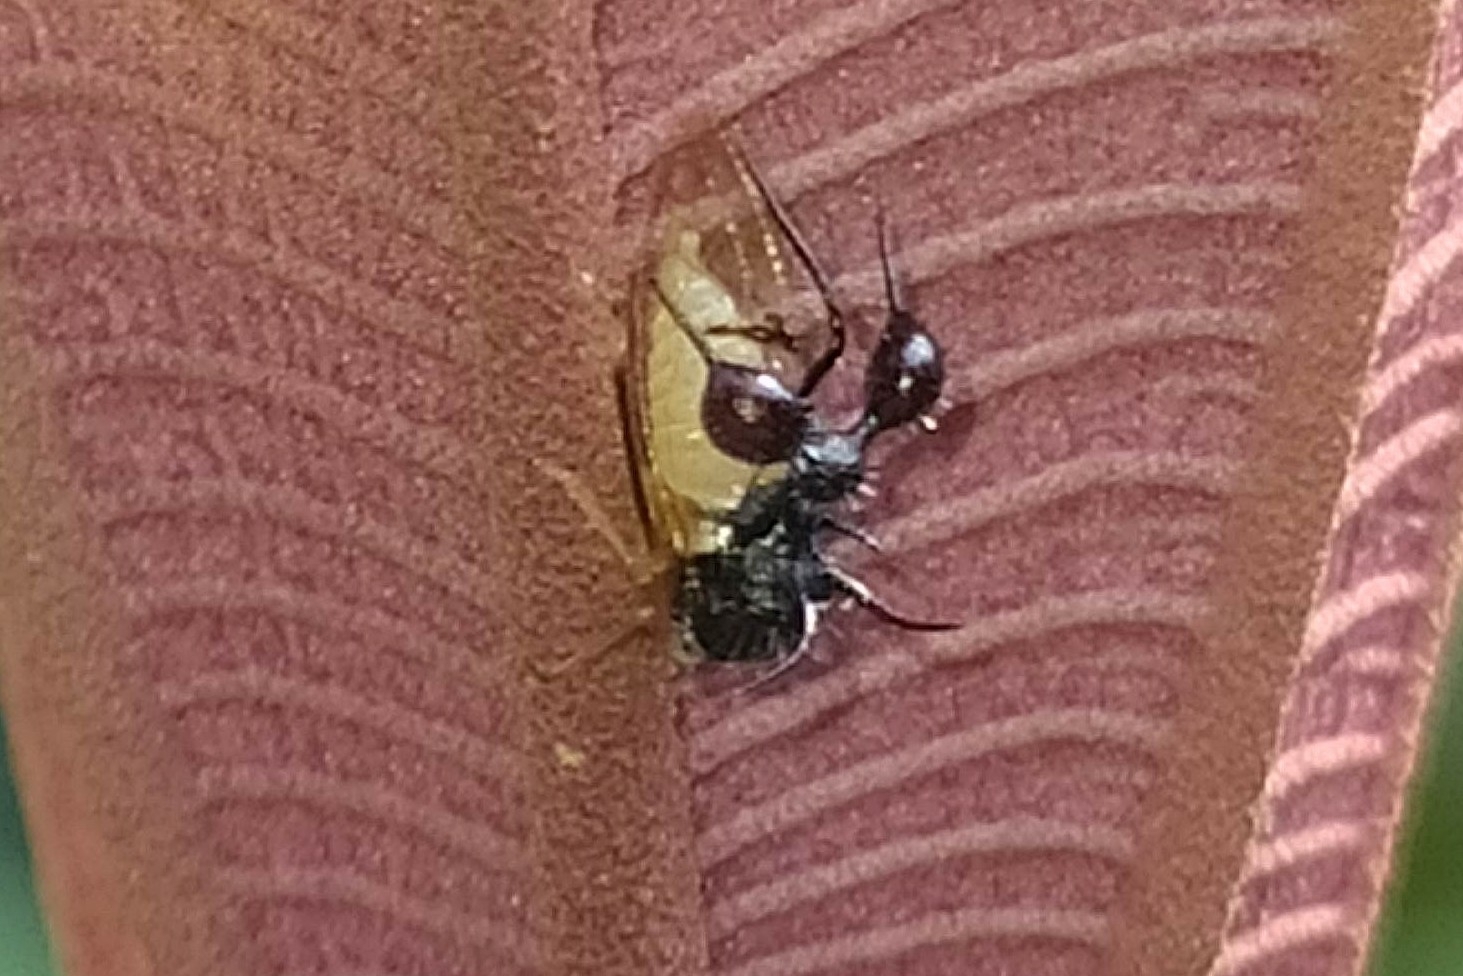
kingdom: Animalia
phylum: Arthropoda
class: Insecta
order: Hemiptera
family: Membracidae
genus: Cyphonia
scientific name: Cyphonia clavata
